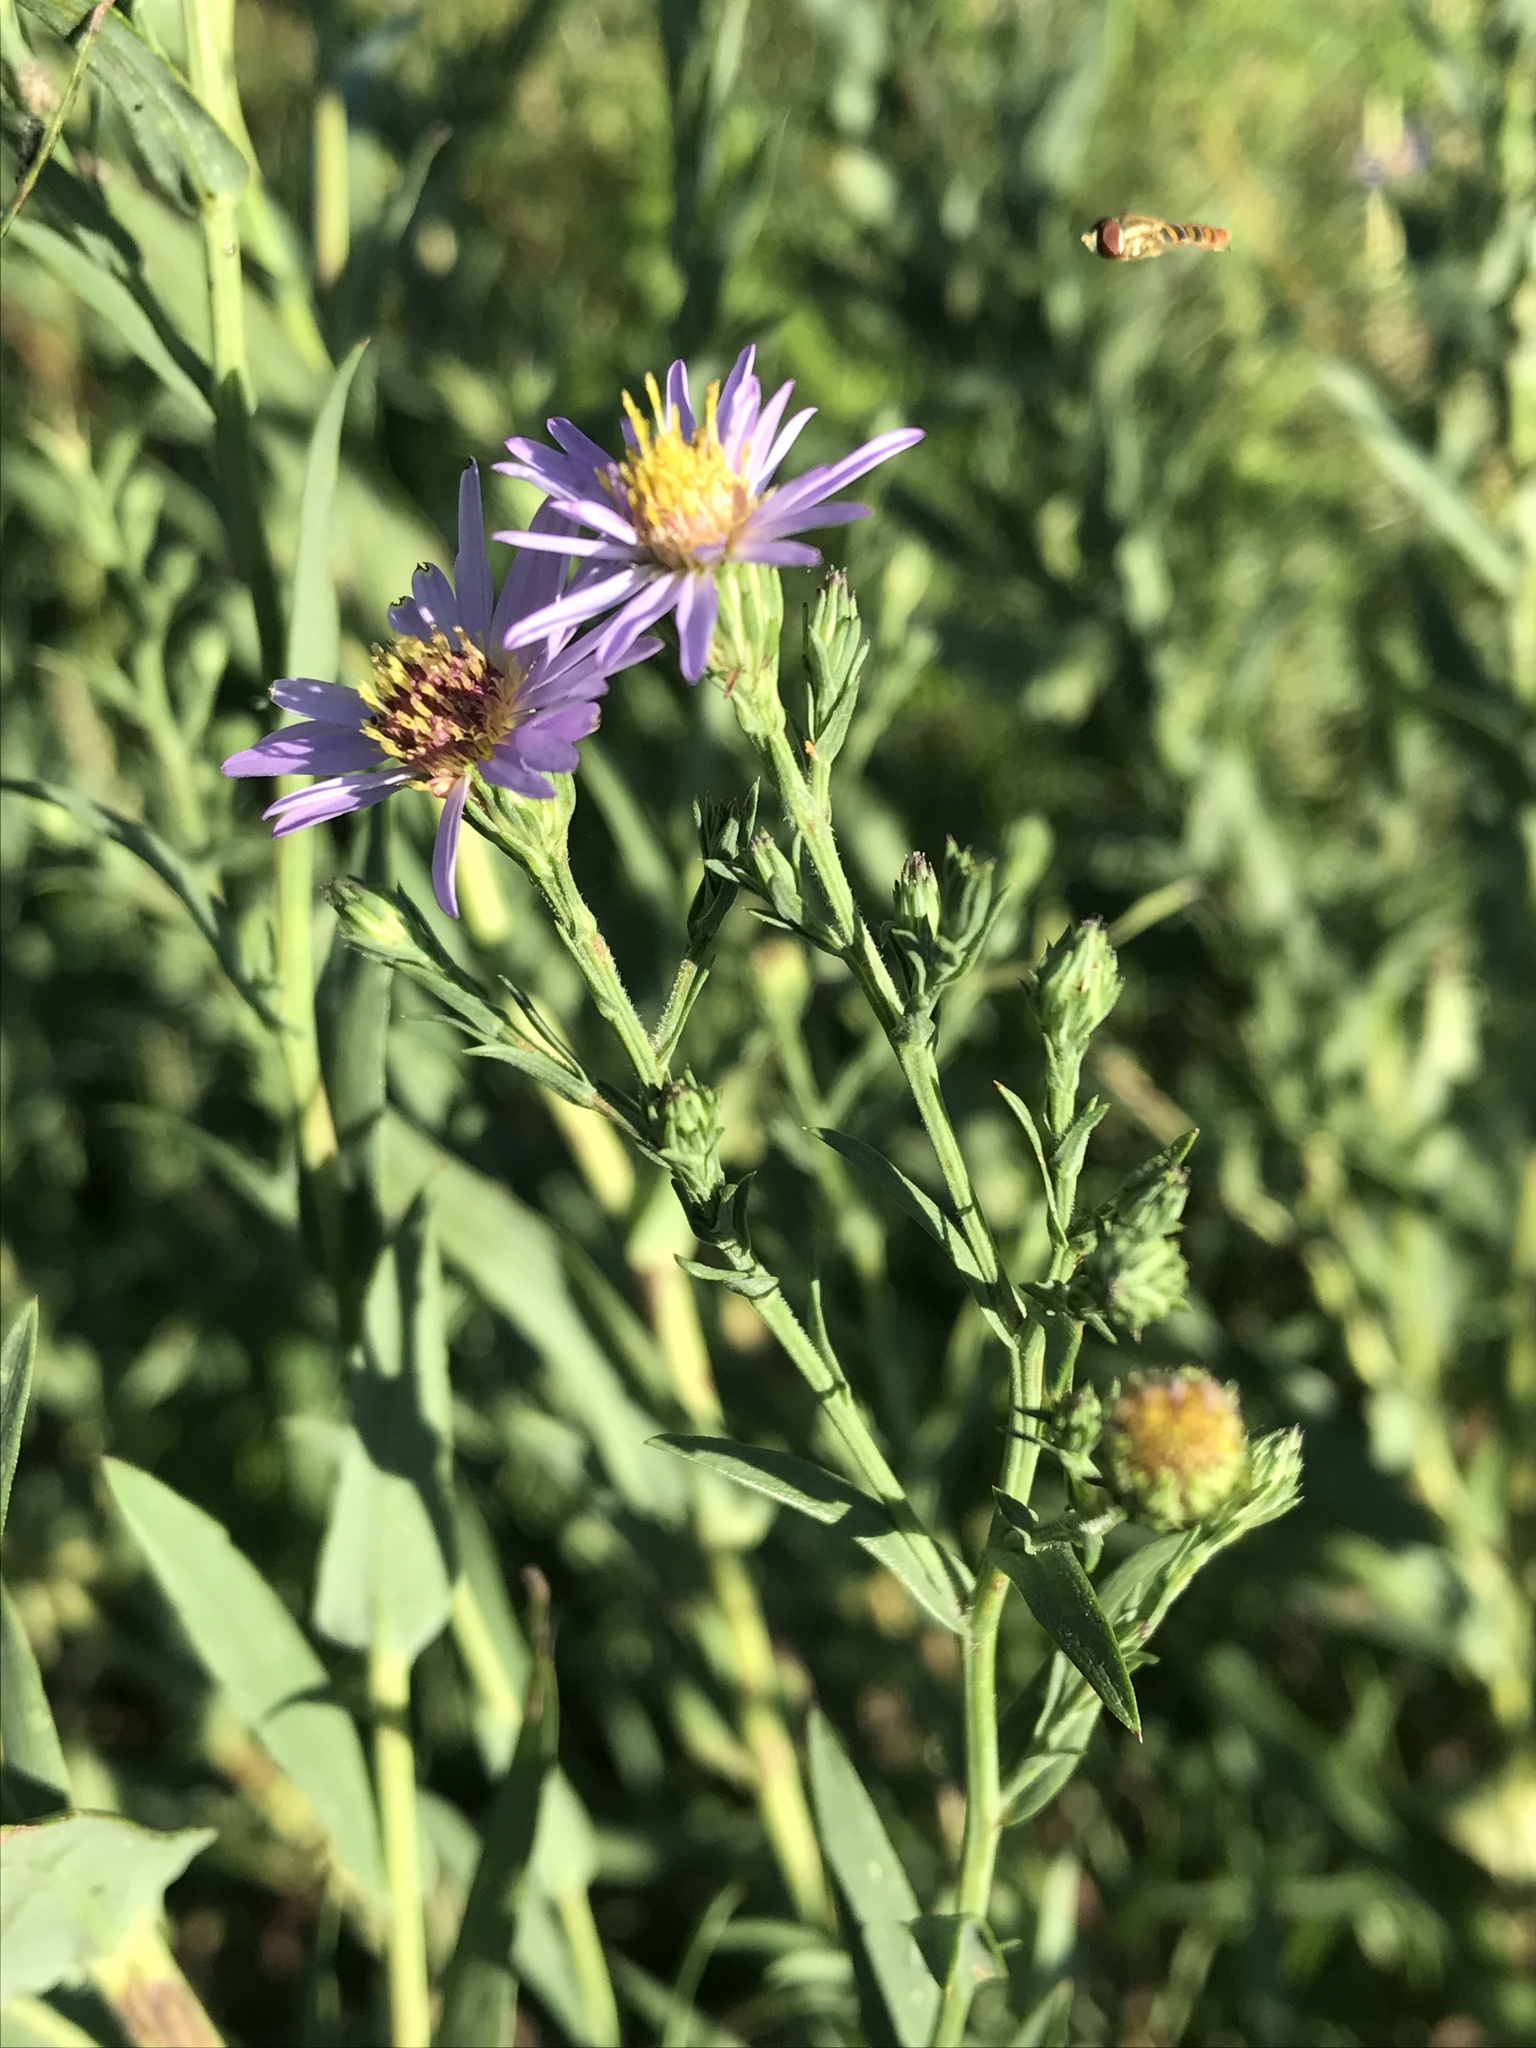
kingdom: Plantae
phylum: Tracheophyta
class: Magnoliopsida
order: Asterales
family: Asteraceae
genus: Symphyotrichum
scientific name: Symphyotrichum laeve
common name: Glaucous aster
